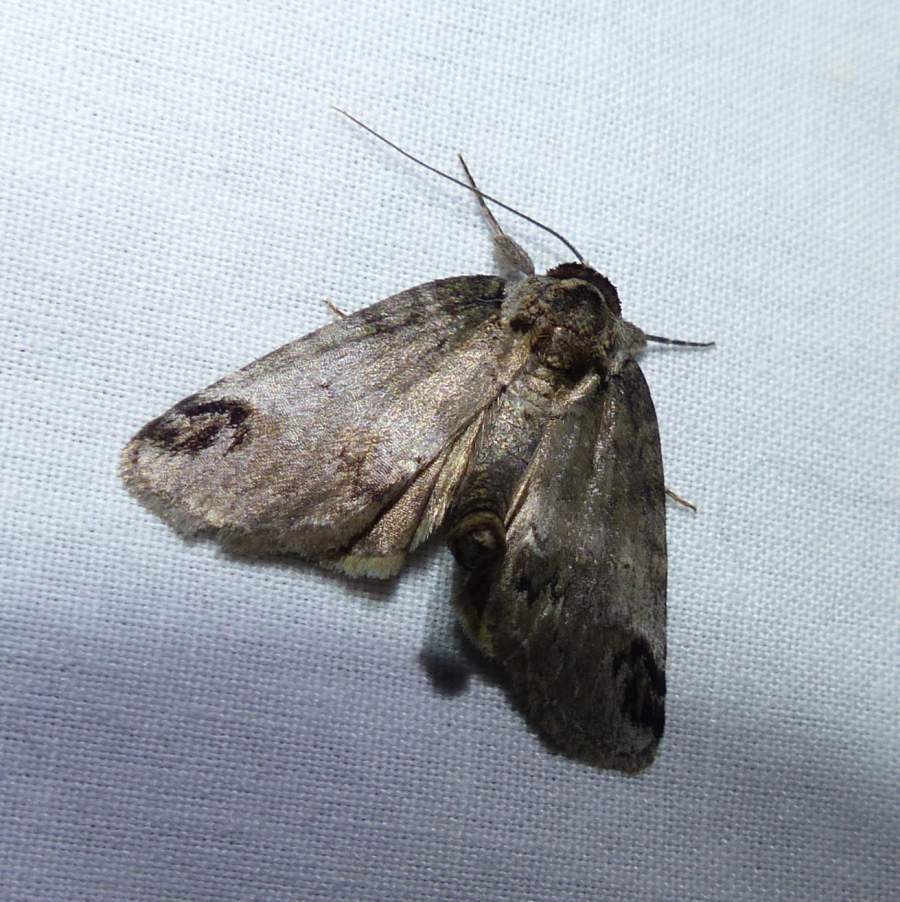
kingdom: Animalia
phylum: Arthropoda
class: Insecta
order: Lepidoptera
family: Nolidae
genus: Baileya
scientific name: Baileya dormitans
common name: Sleeping baileya moth
